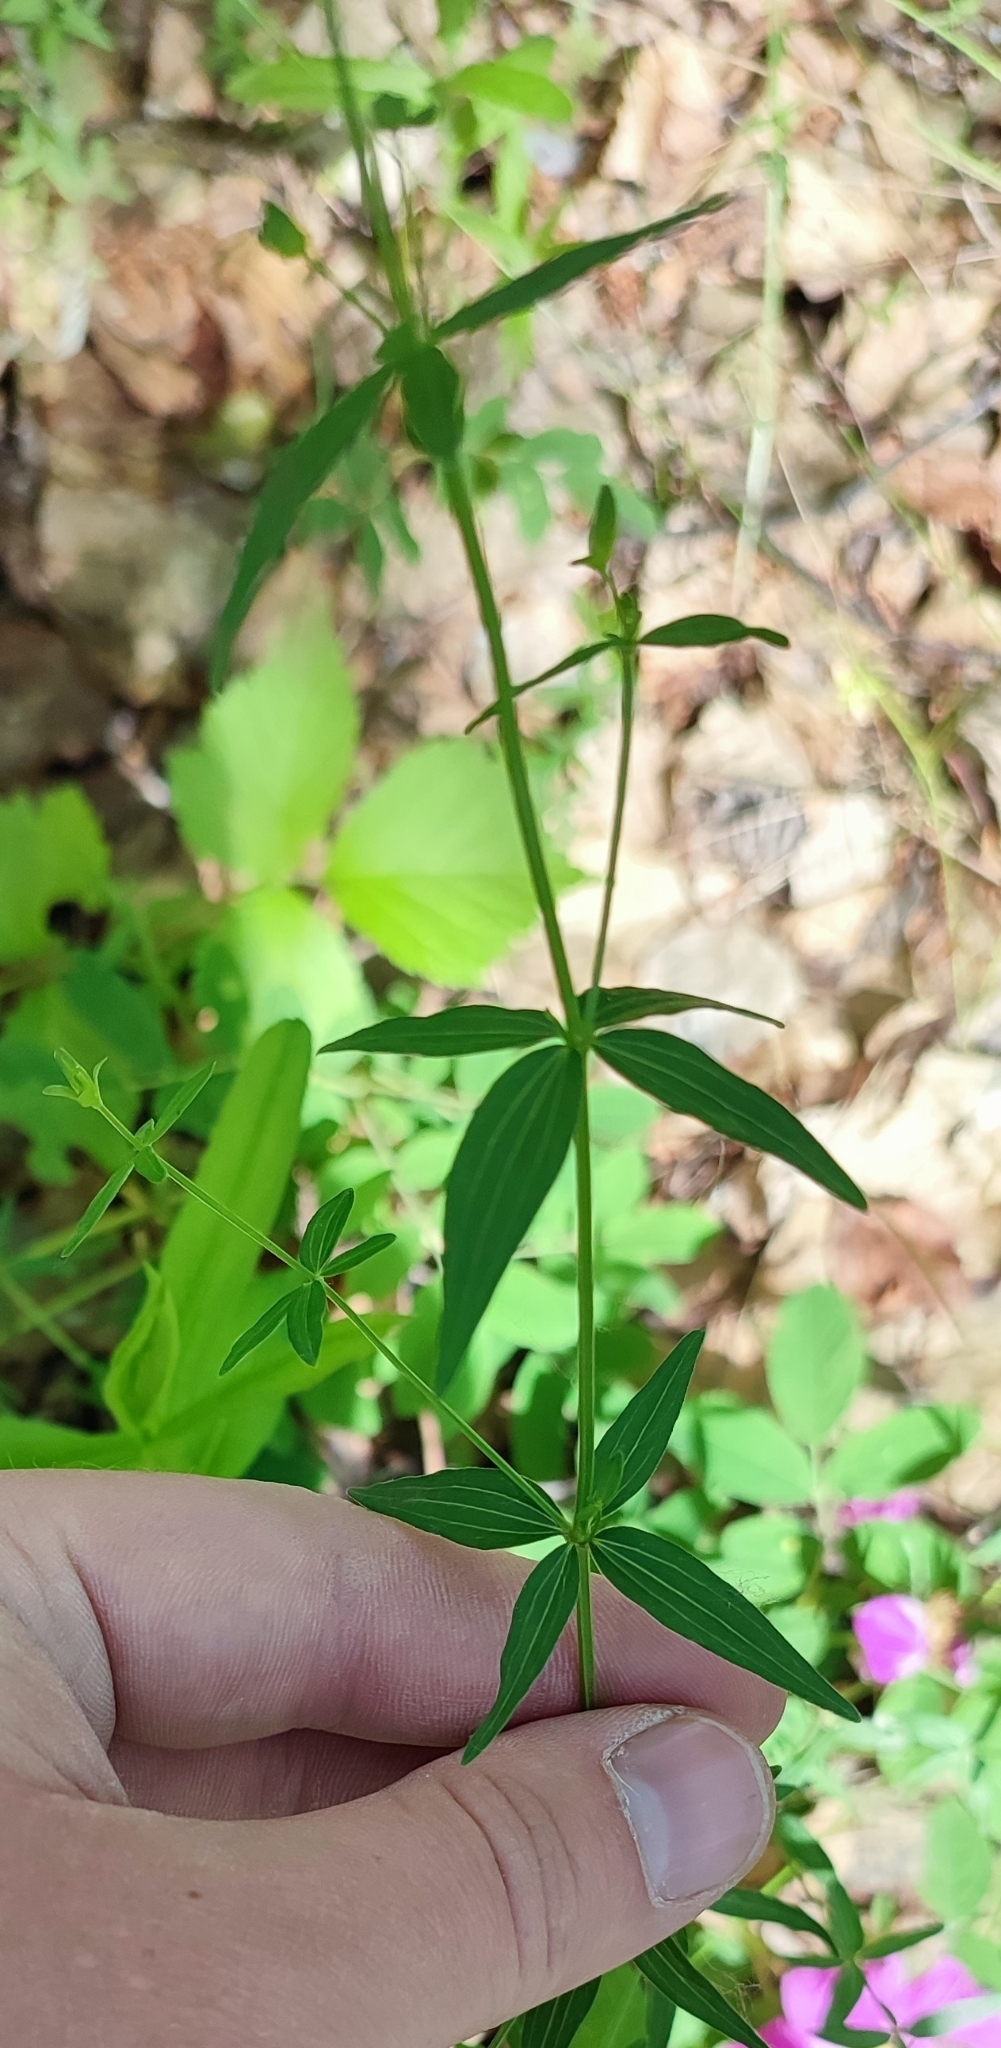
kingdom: Plantae
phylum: Tracheophyta
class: Magnoliopsida
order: Gentianales
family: Rubiaceae
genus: Galium
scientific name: Galium boreale
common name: Northern bedstraw
